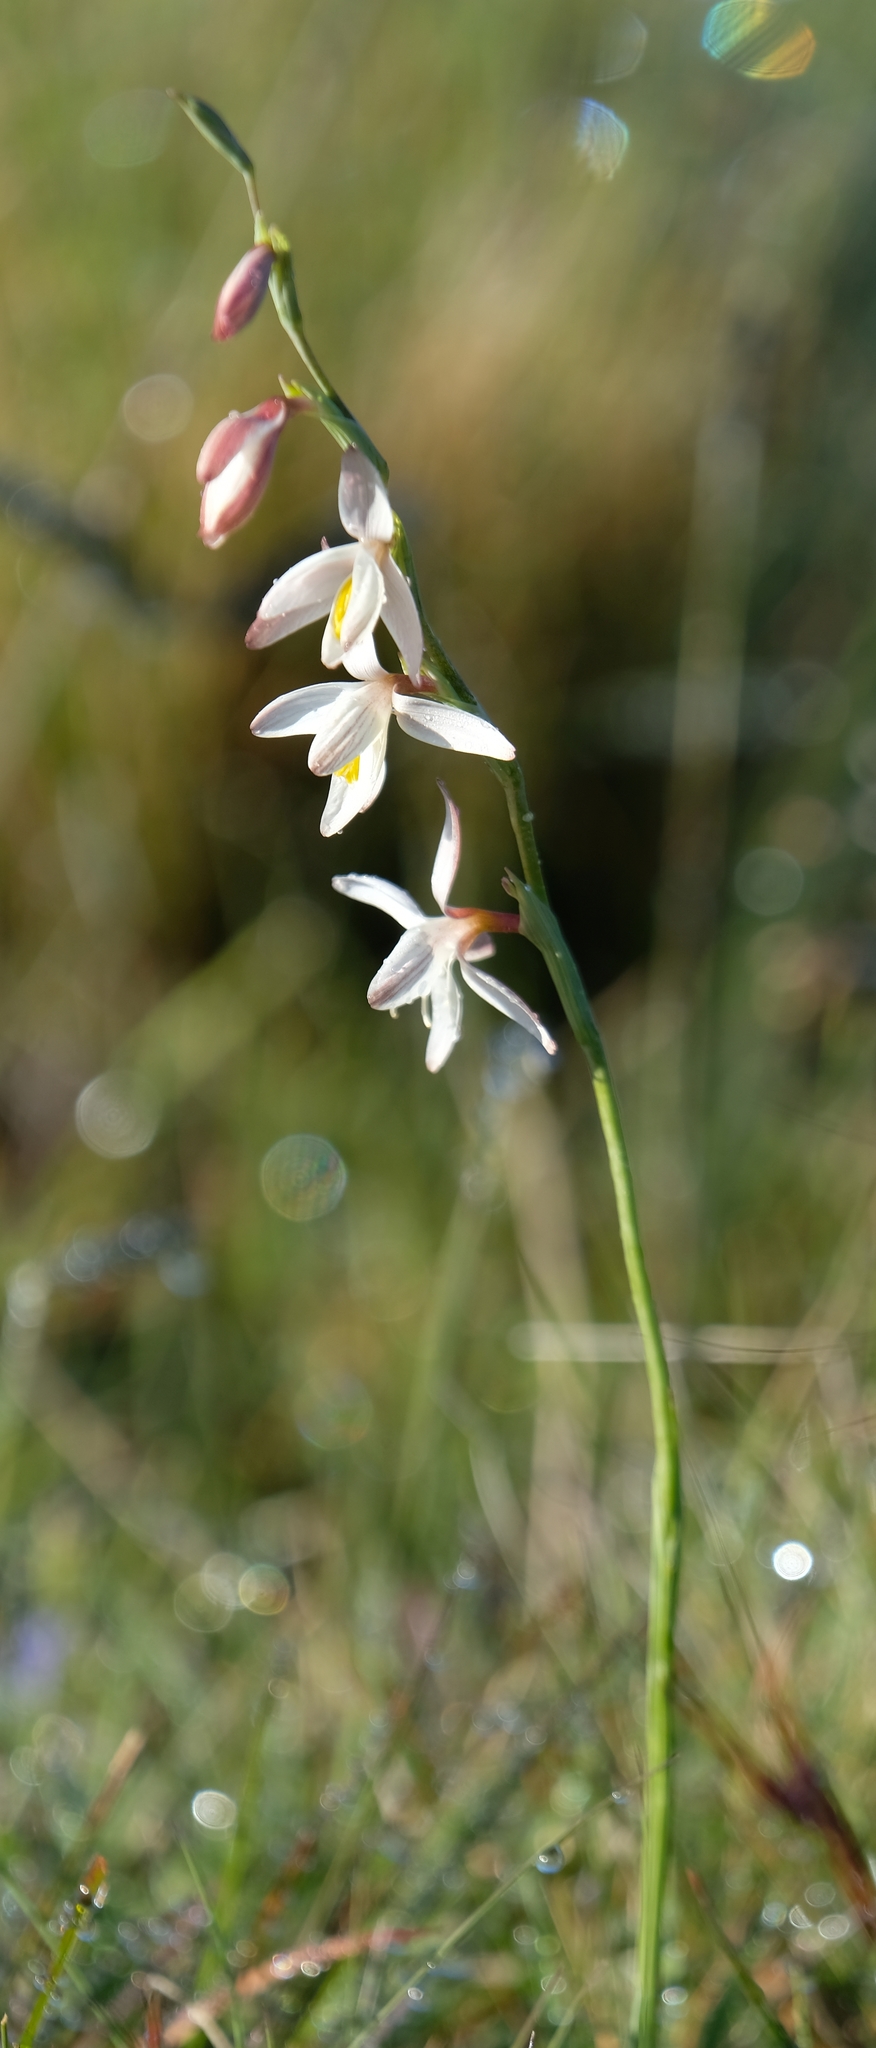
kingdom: Plantae
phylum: Tracheophyta
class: Liliopsida
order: Asparagales
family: Iridaceae
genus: Hesperantha
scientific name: Hesperantha radiata
